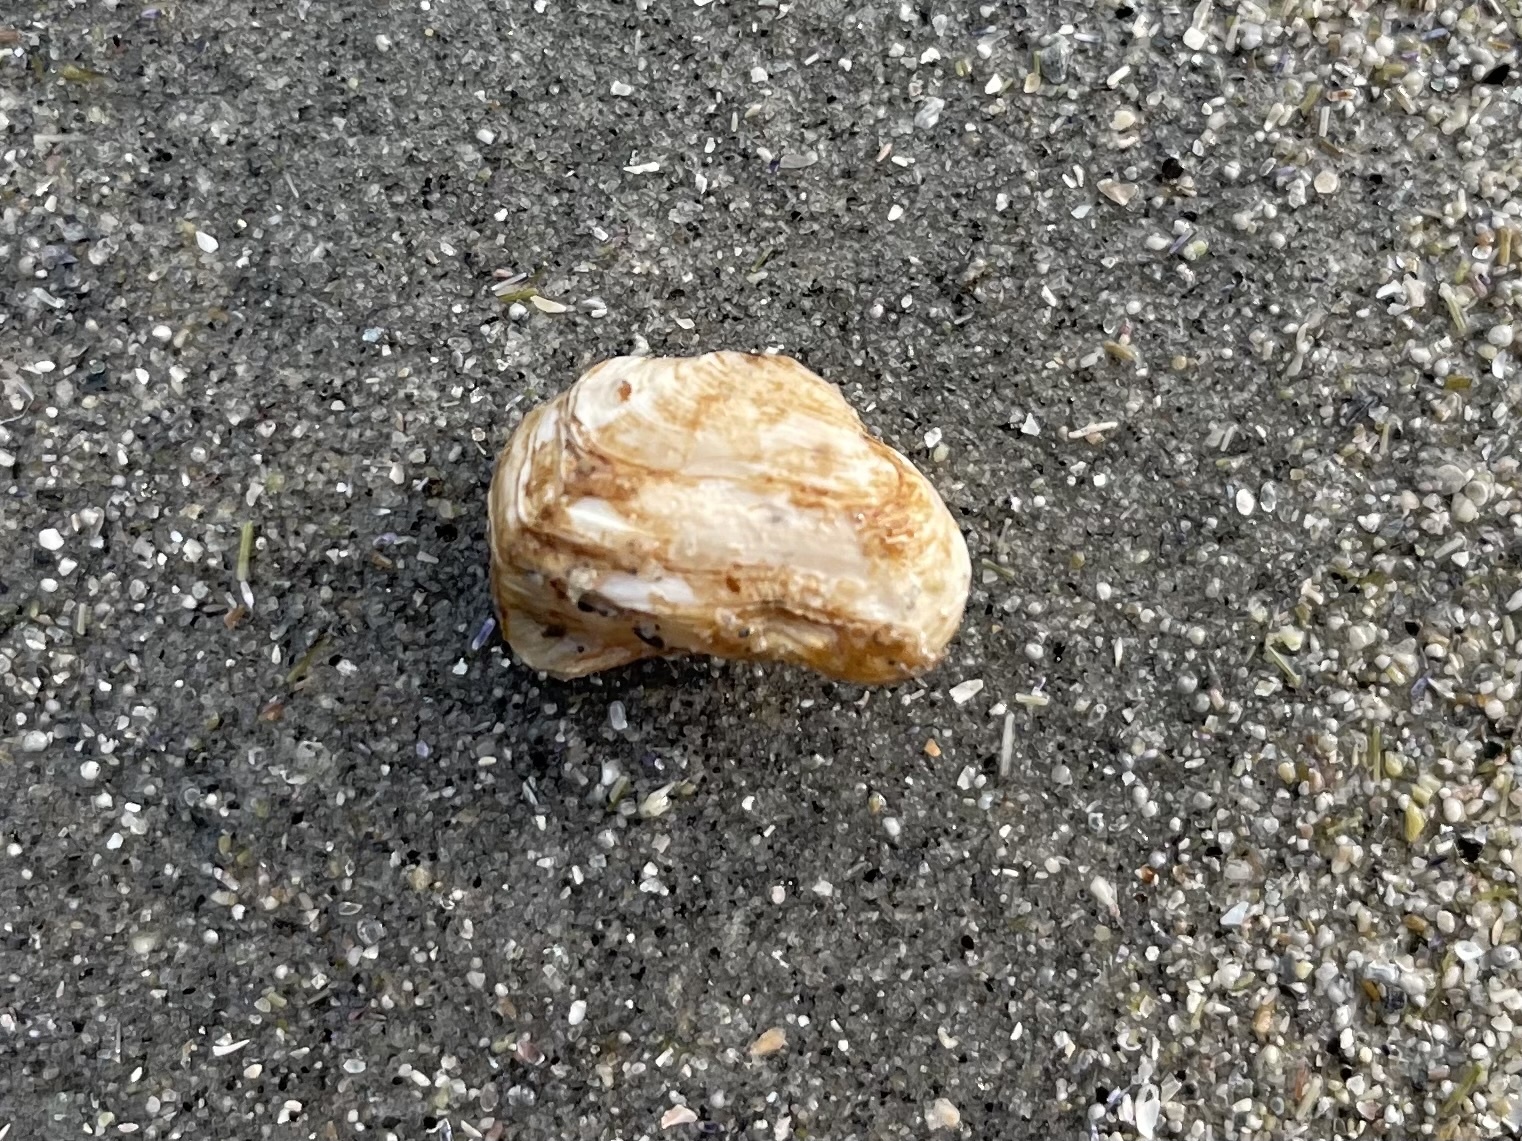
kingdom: Animalia
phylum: Mollusca
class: Bivalvia
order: Adapedonta
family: Hiatellidae
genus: Hiatella
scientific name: Hiatella arctica
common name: Arctic hiatella
